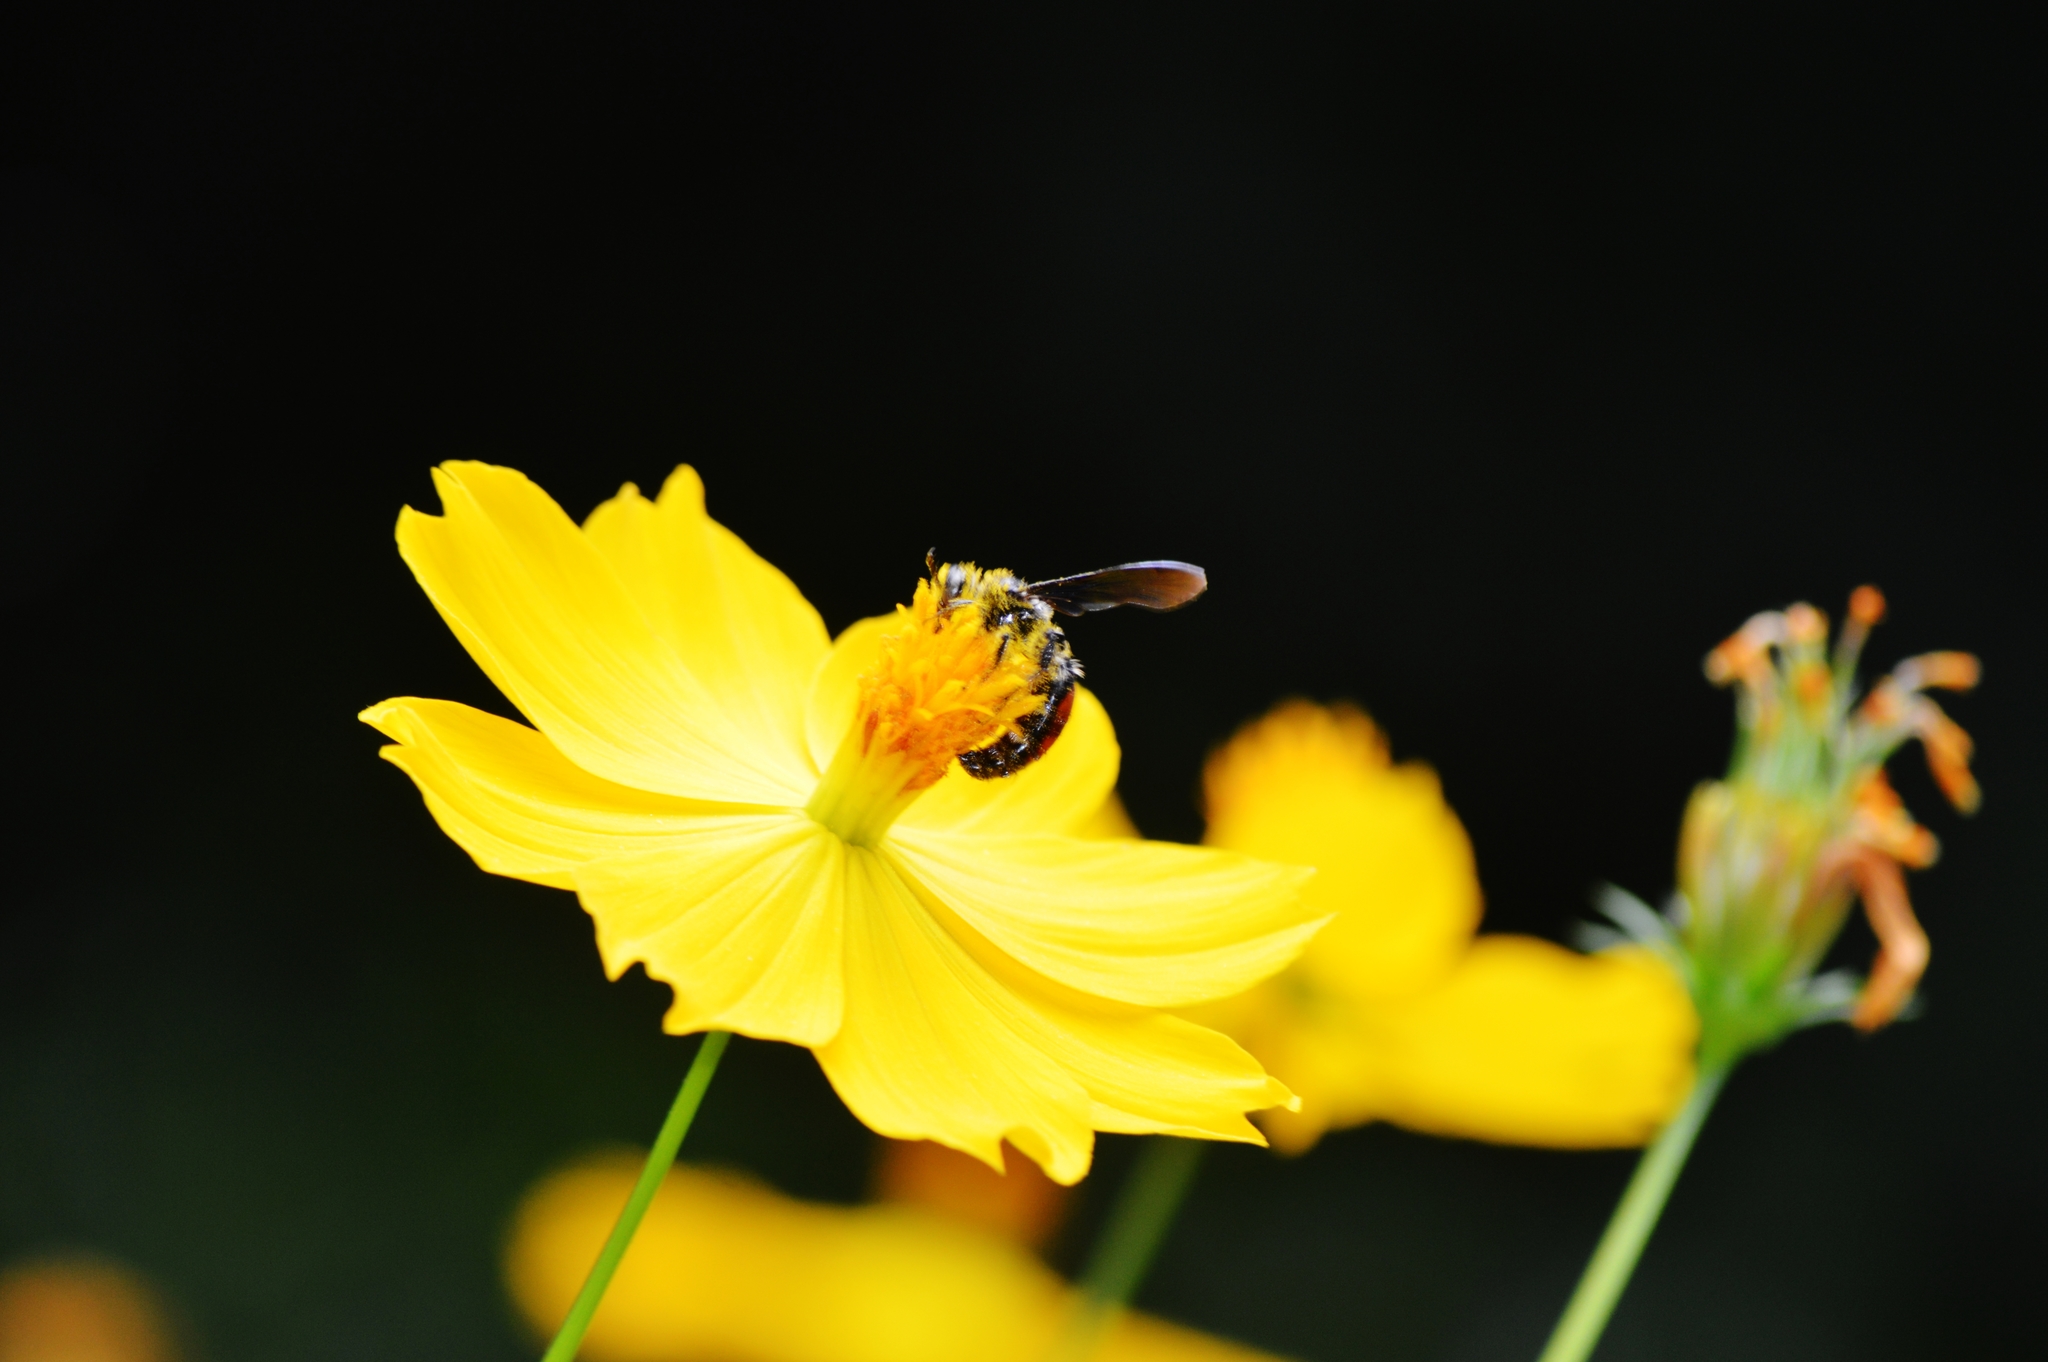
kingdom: Animalia
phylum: Arthropoda
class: Insecta
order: Hymenoptera
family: Scoliidae
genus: Dielis
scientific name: Dielis dorsata
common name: Scoliid wasp
